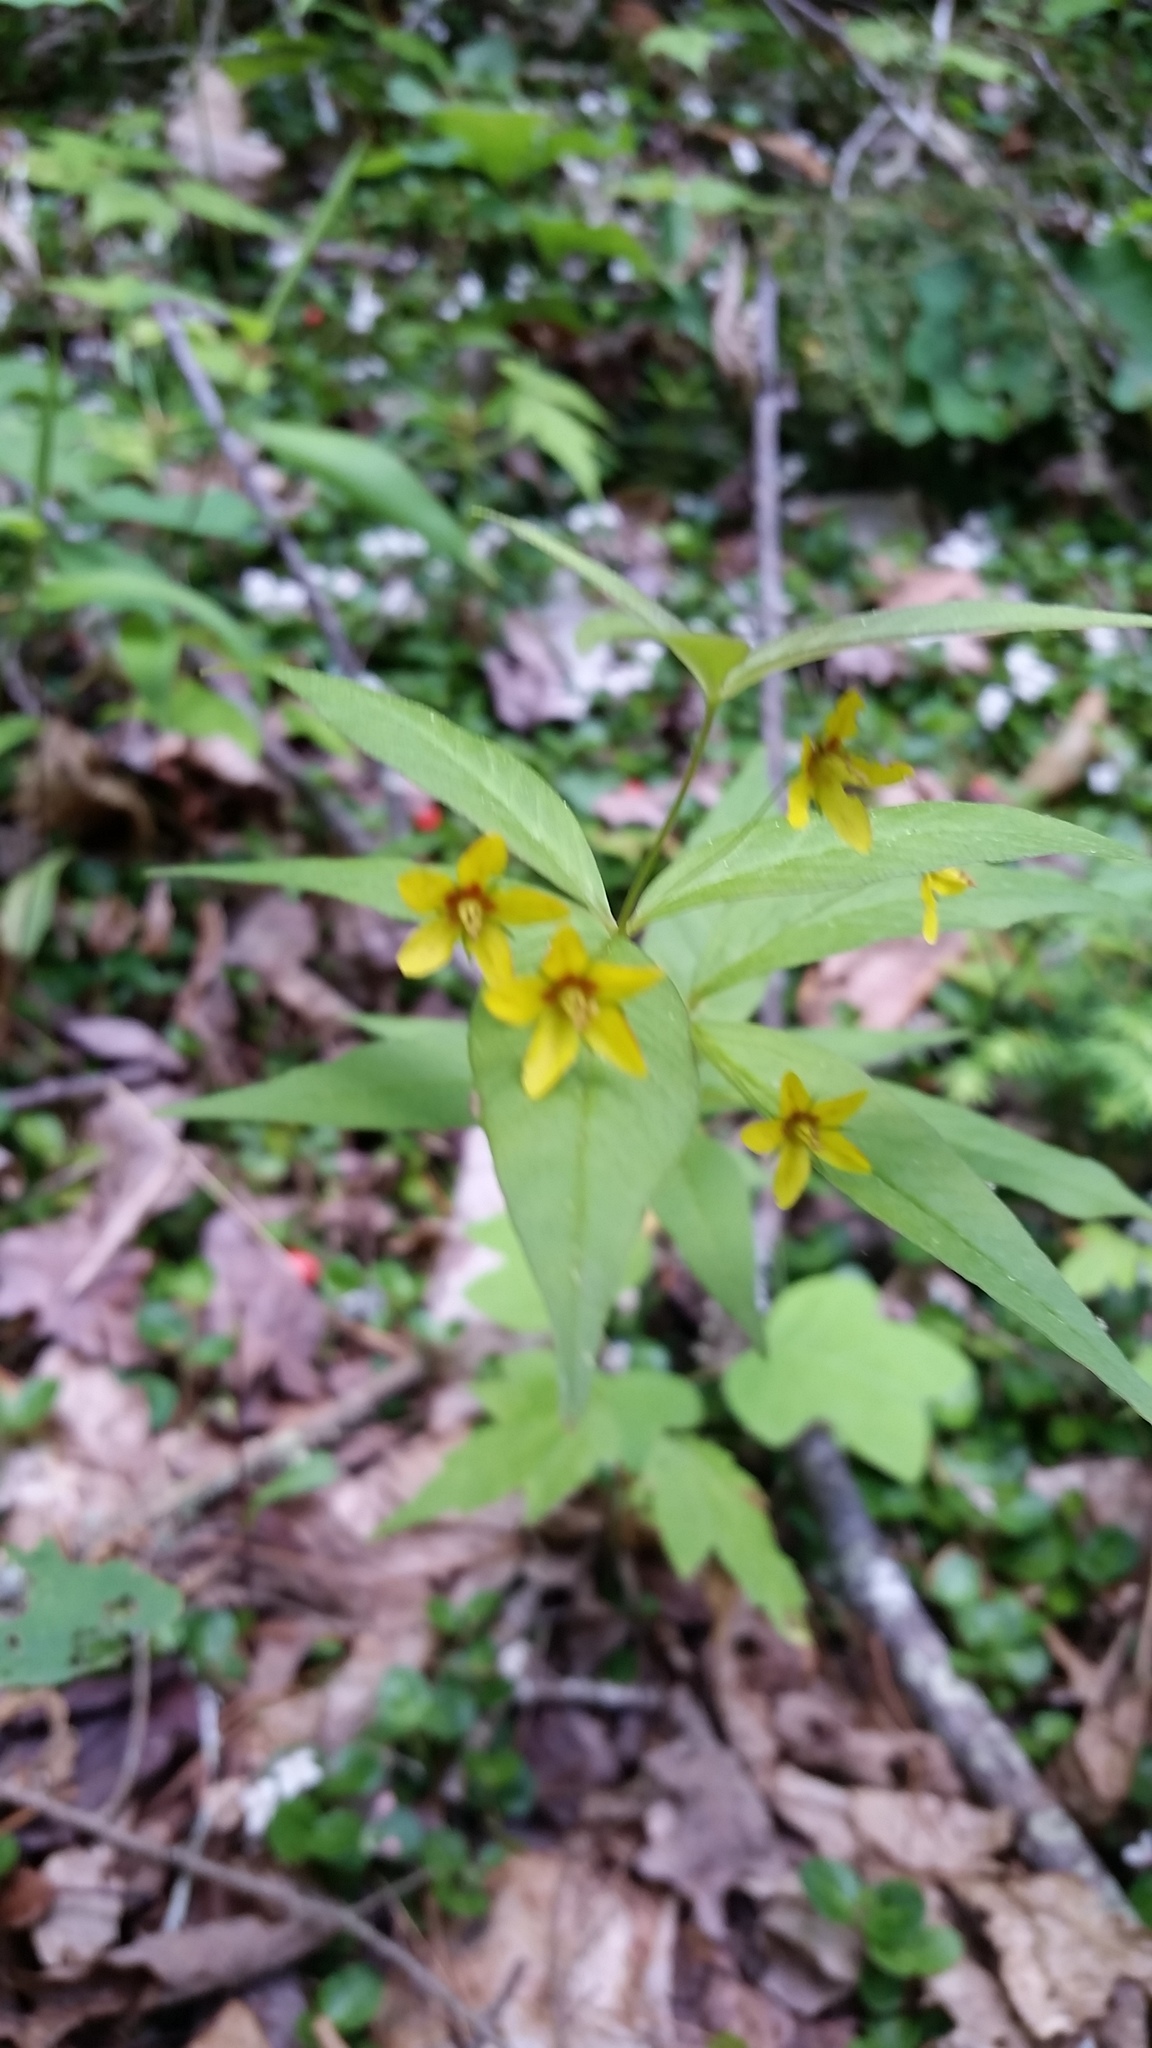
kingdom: Plantae
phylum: Tracheophyta
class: Magnoliopsida
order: Ericales
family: Primulaceae
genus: Lysimachia
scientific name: Lysimachia quadrifolia
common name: Whorled loosestrife
